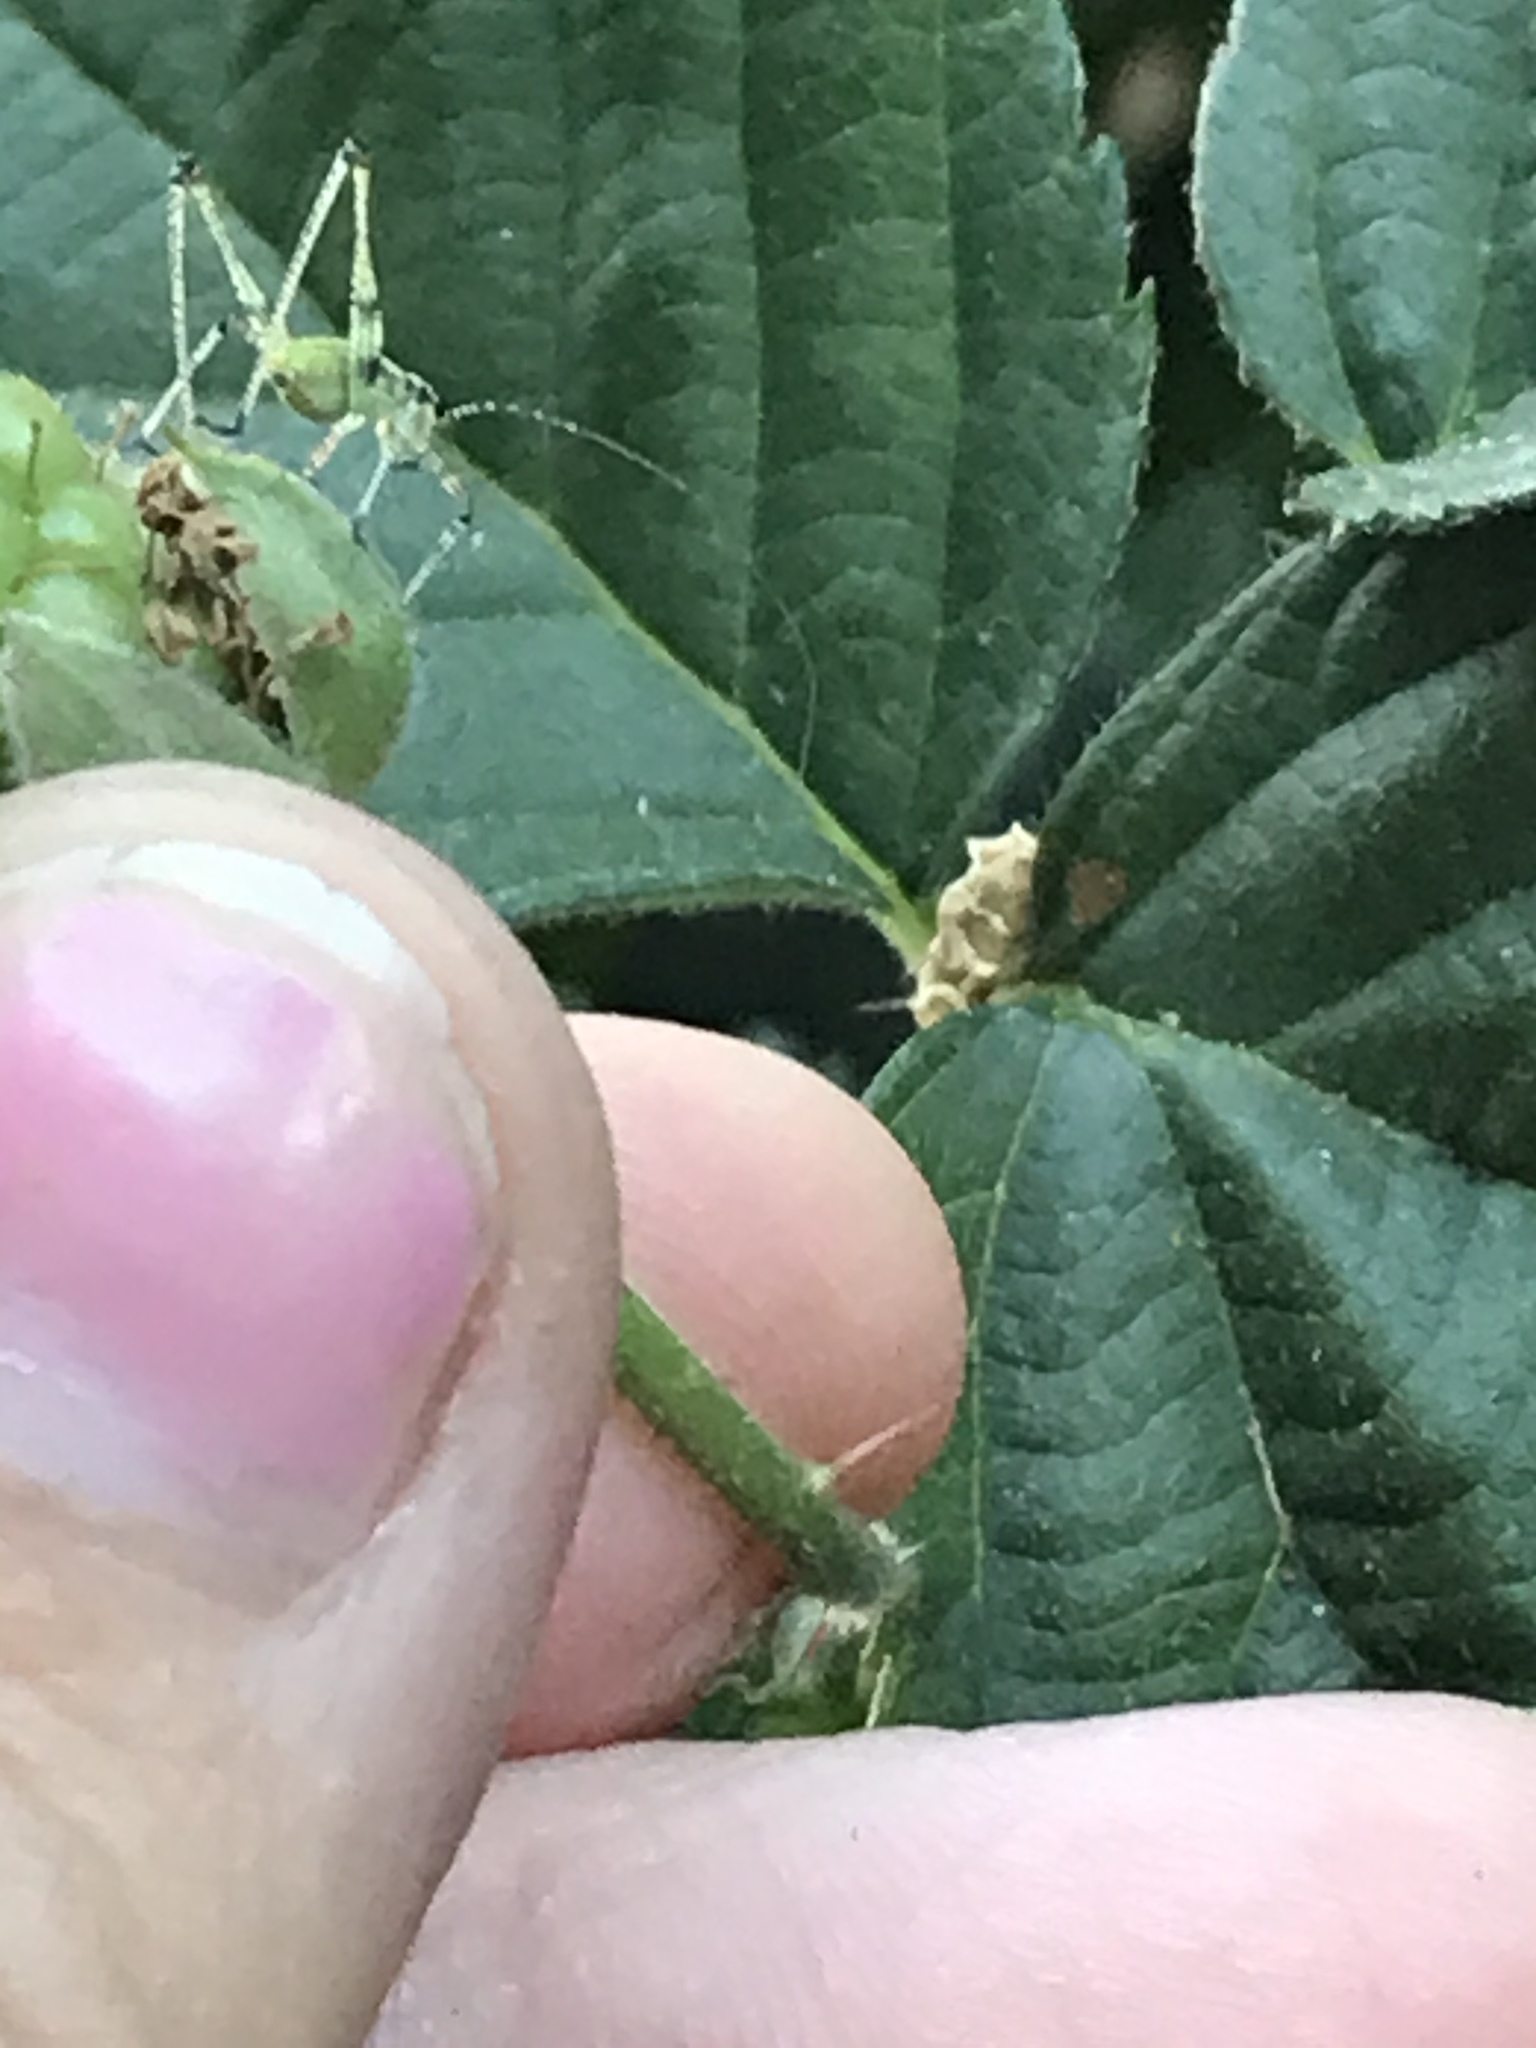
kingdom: Animalia
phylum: Arthropoda
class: Insecta
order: Orthoptera
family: Tettigoniidae
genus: Phaneroptera
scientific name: Phaneroptera nana
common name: Southern sickle bush-cricket
